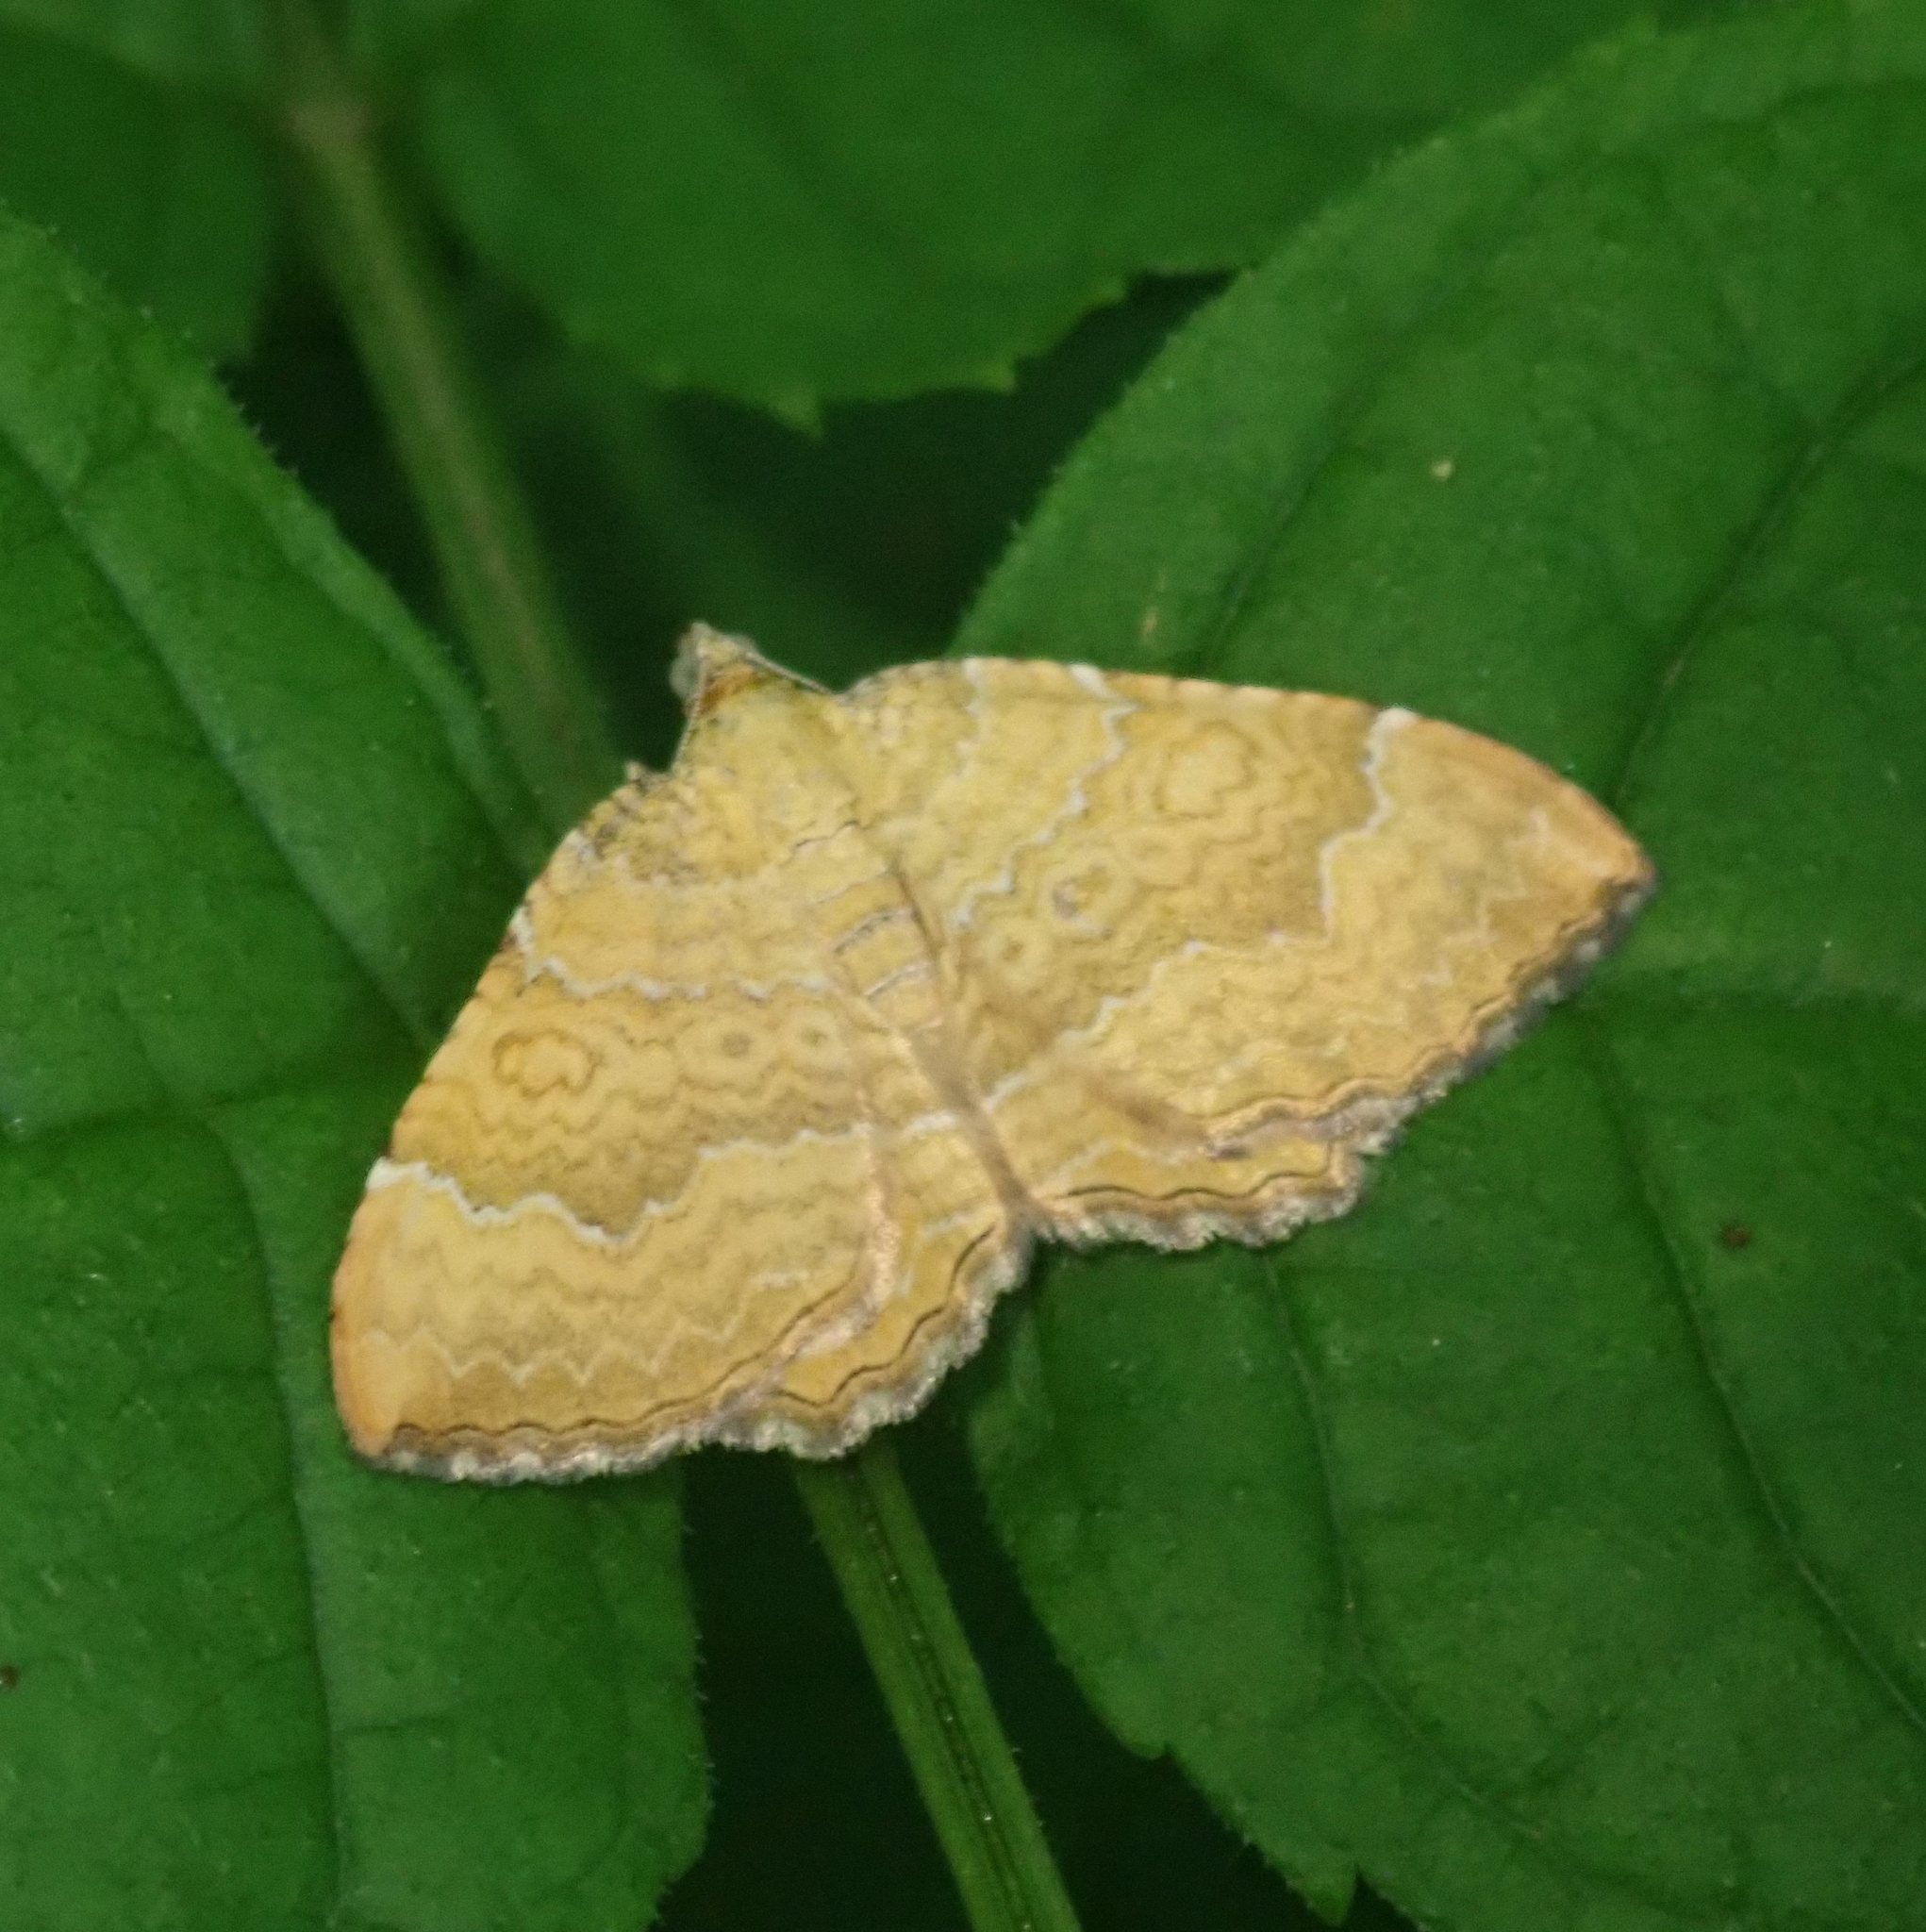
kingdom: Animalia
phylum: Arthropoda
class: Insecta
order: Lepidoptera
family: Geometridae
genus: Camptogramma
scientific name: Camptogramma bilineata
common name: Yellow shell
